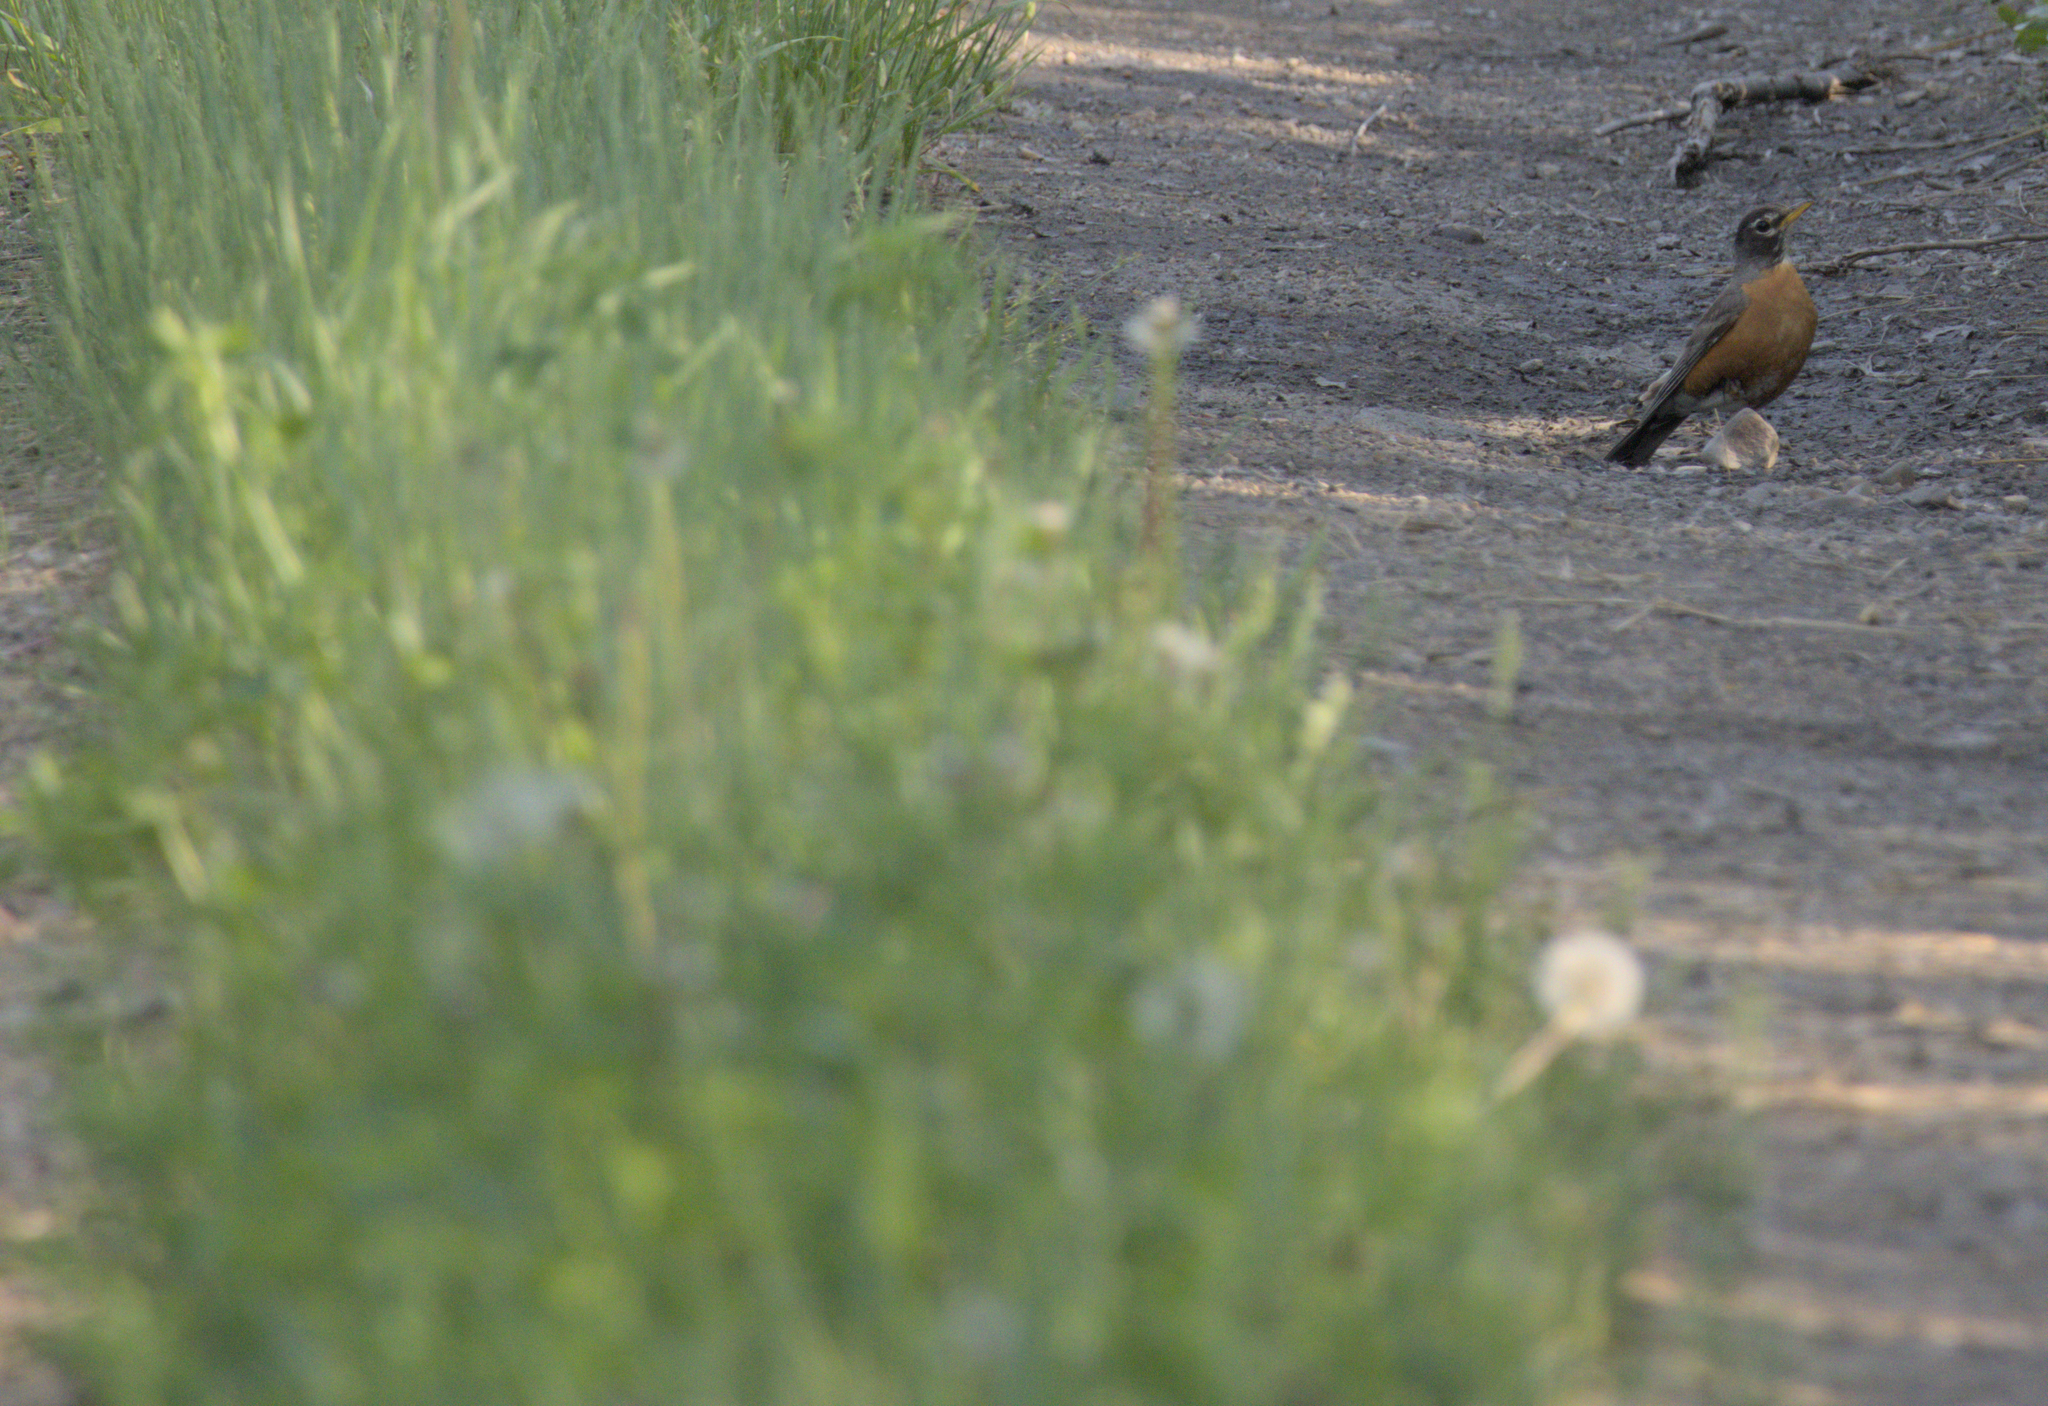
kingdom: Animalia
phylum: Chordata
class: Aves
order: Passeriformes
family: Turdidae
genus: Turdus
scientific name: Turdus migratorius
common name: American robin
